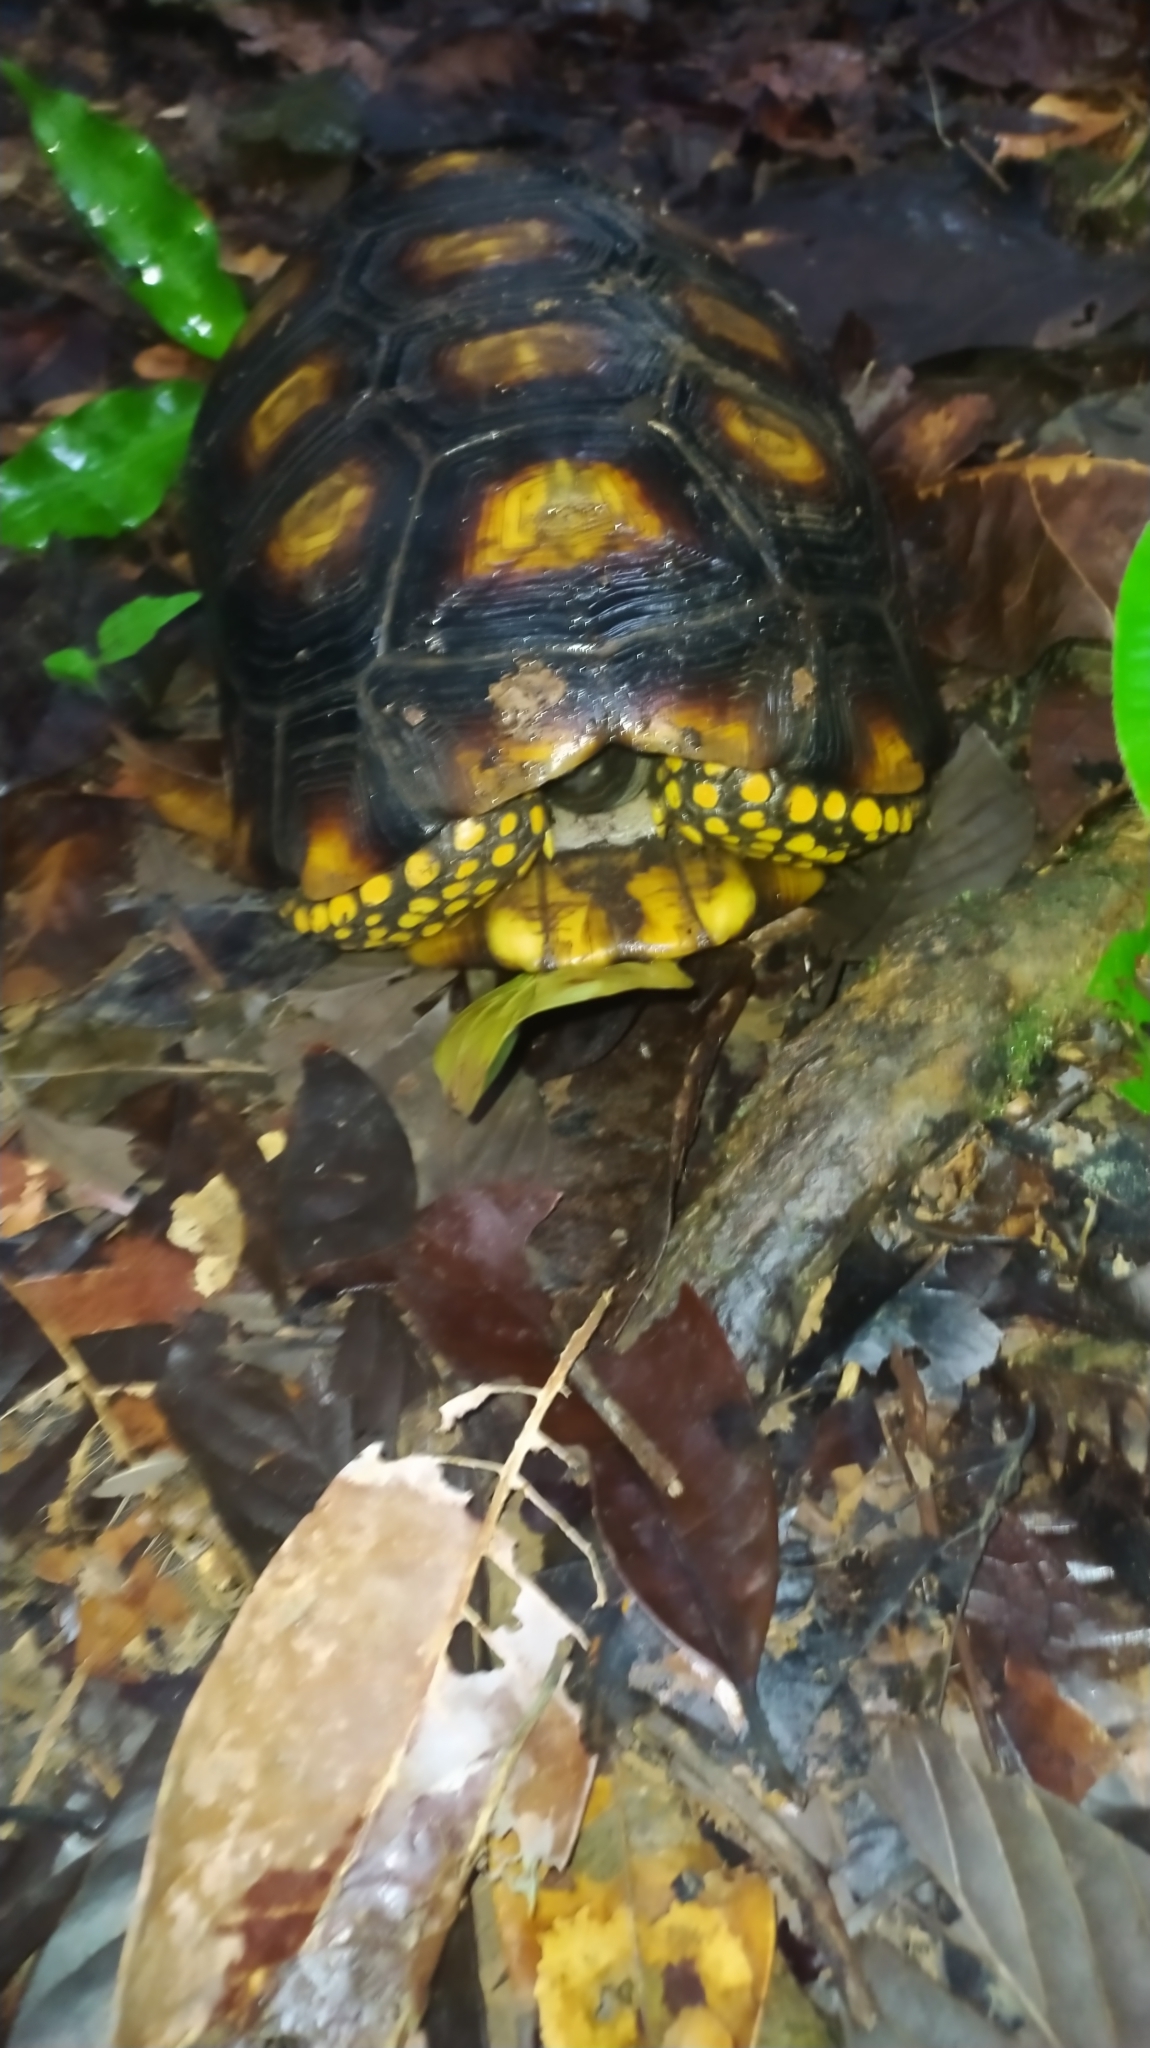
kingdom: Animalia
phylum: Chordata
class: Testudines
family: Testudinidae
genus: Chelonoidis
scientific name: Chelonoidis denticulatus
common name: Yellow-footed tortoise
